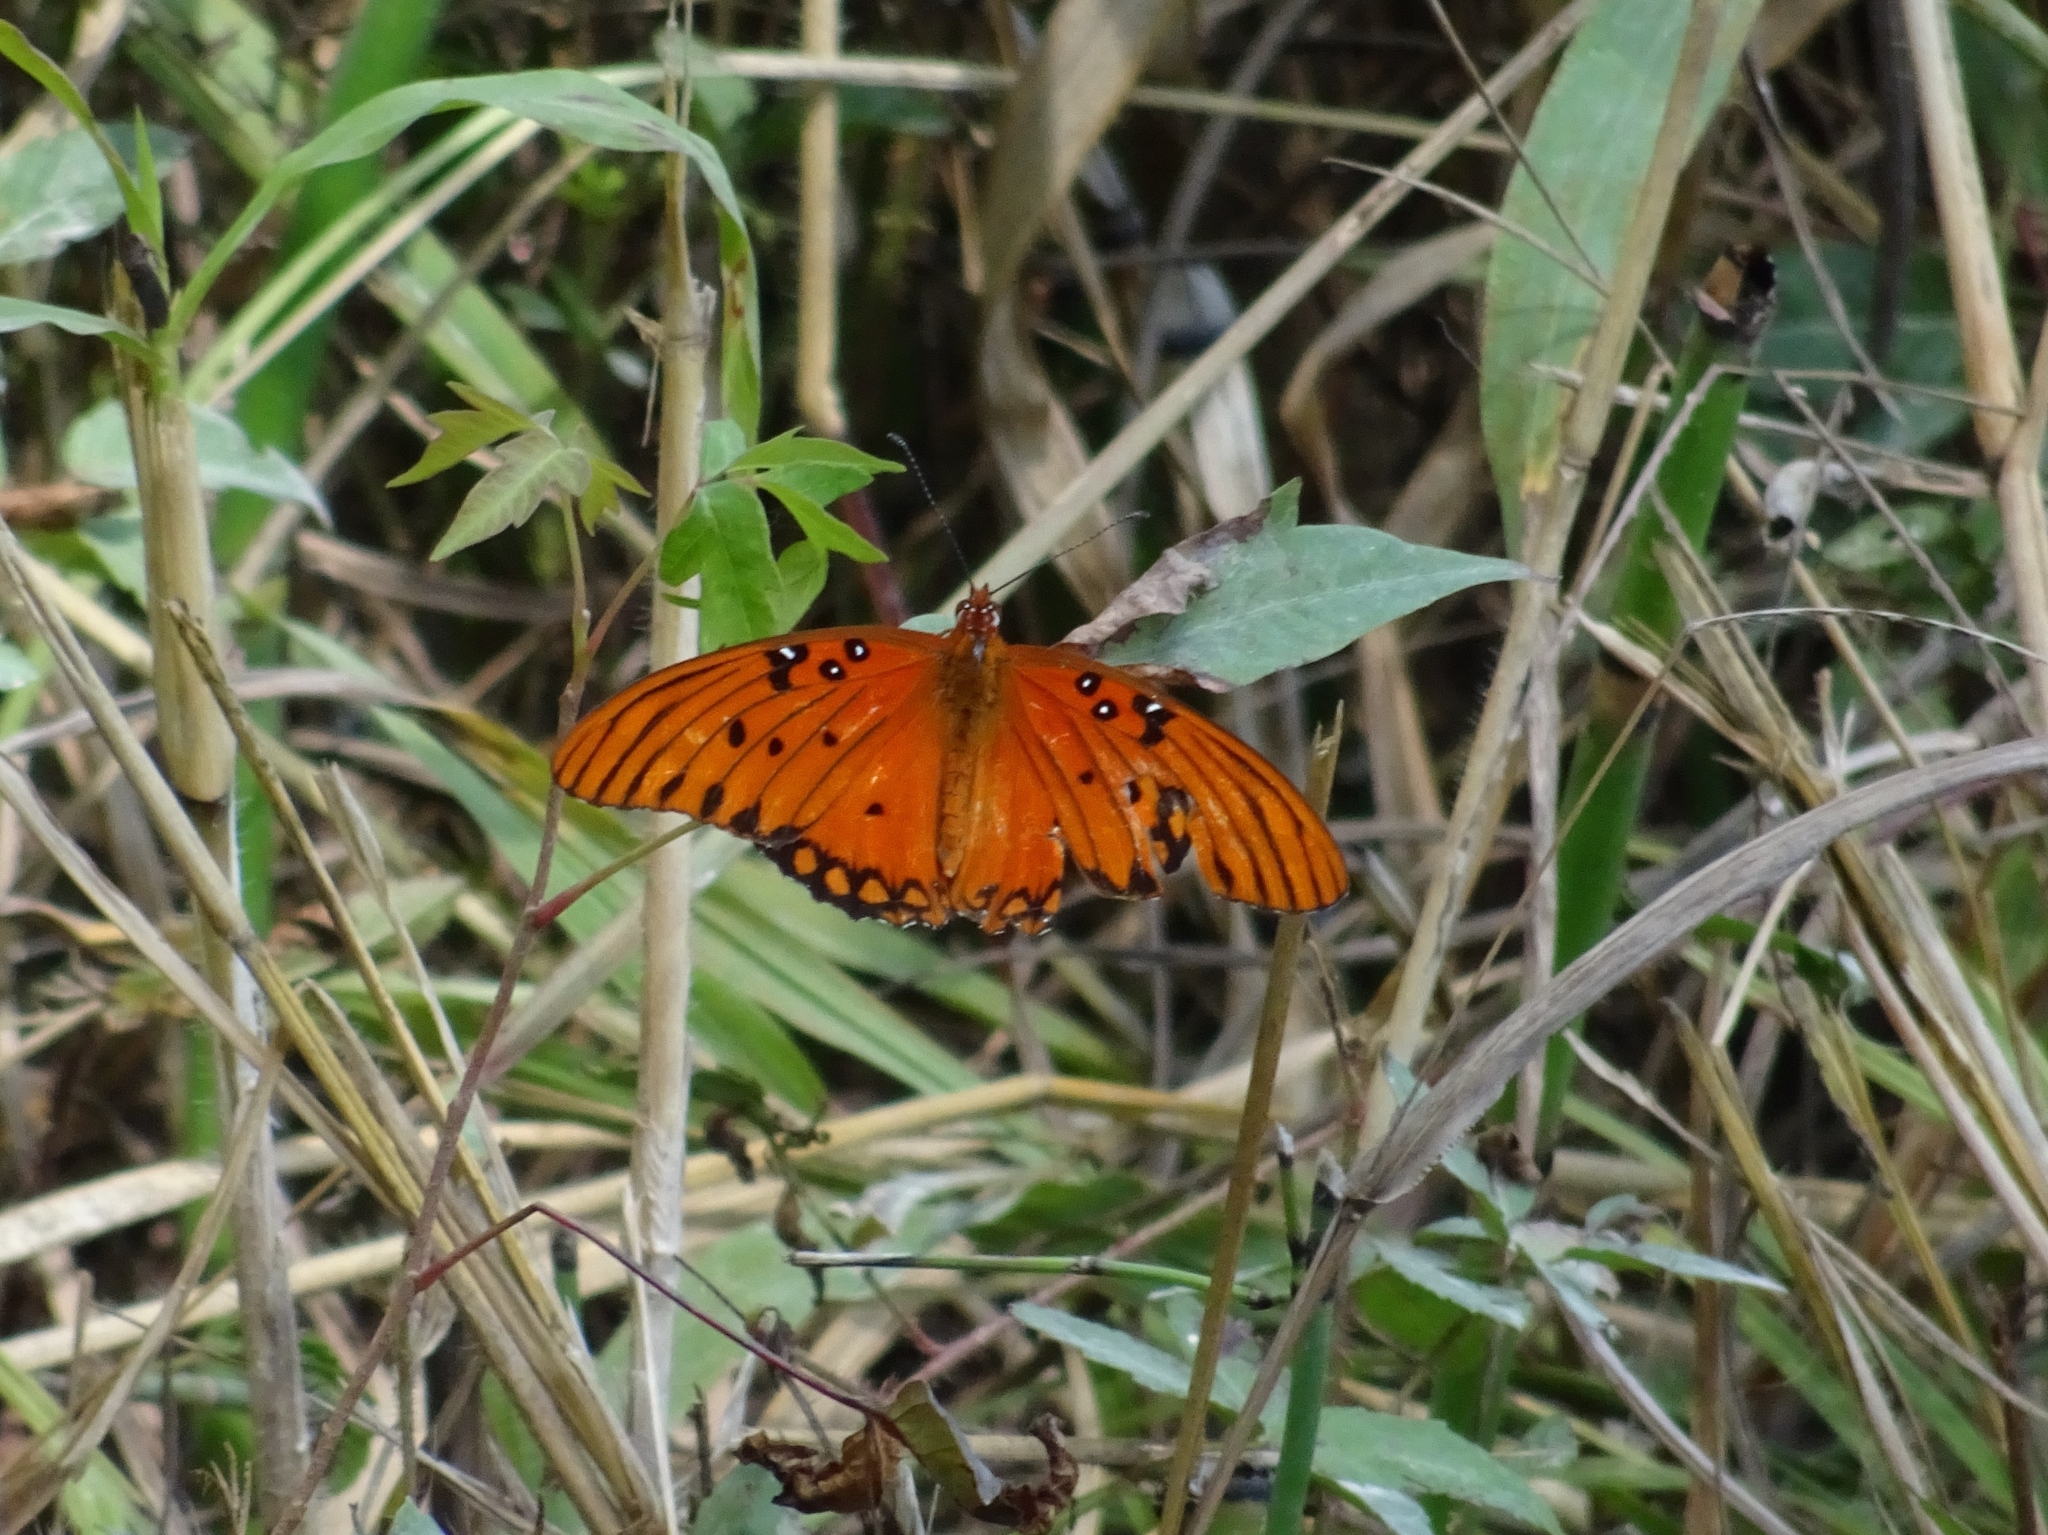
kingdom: Animalia
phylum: Arthropoda
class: Insecta
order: Lepidoptera
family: Nymphalidae
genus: Dione
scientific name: Dione vanillae
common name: Gulf fritillary
